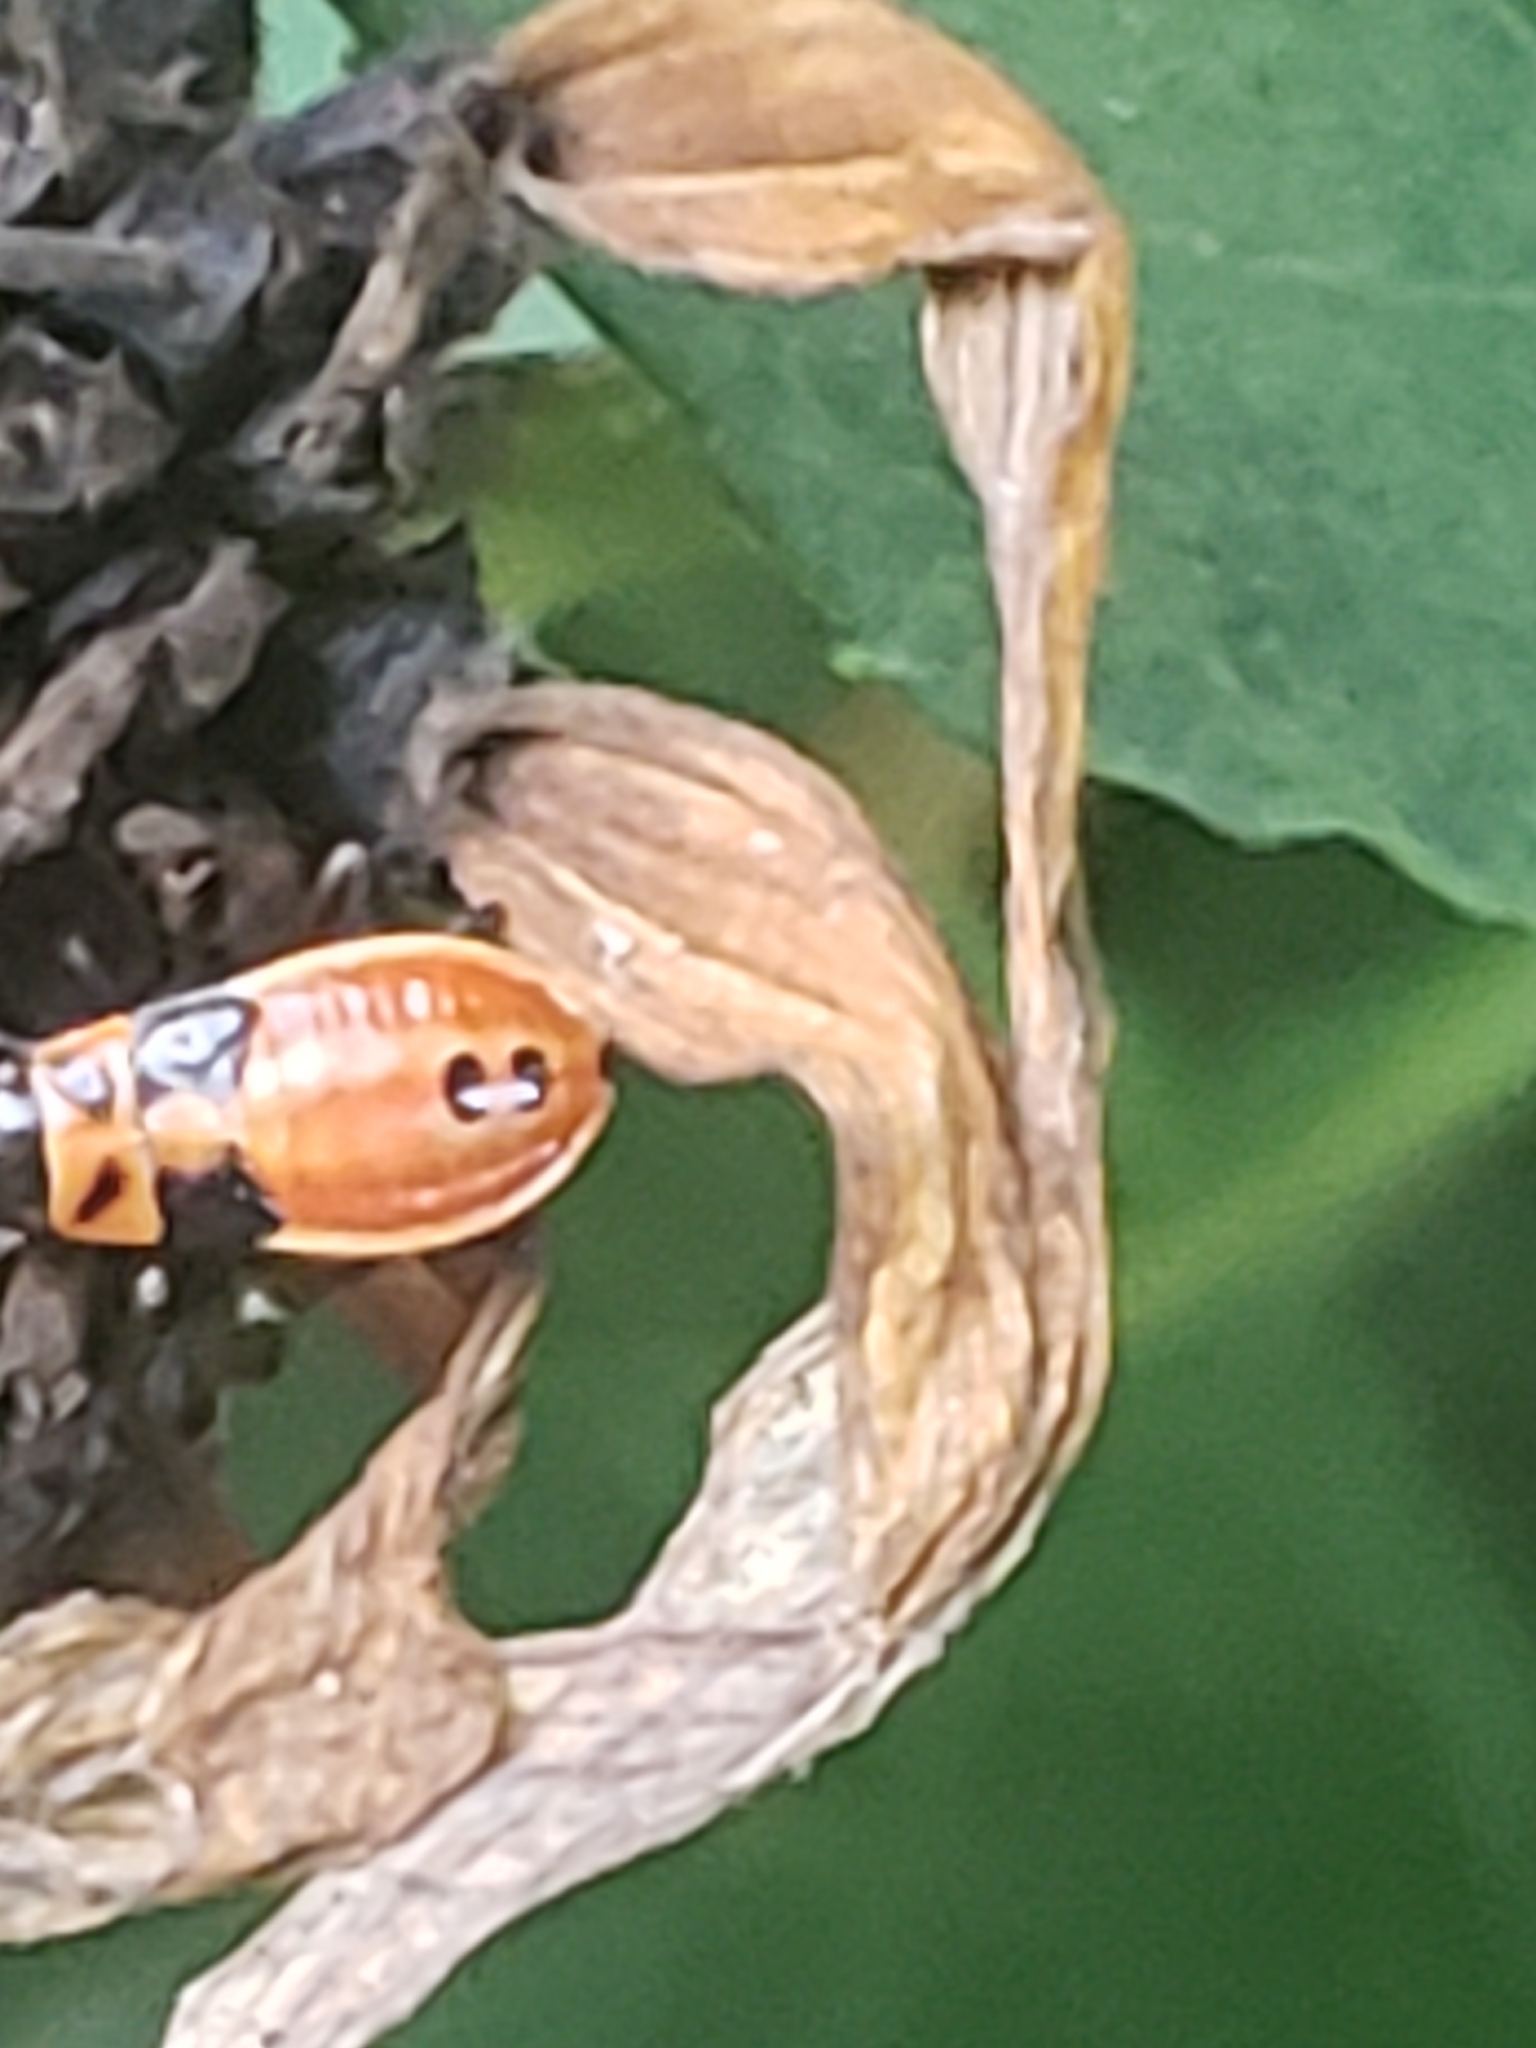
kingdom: Animalia
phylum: Arthropoda
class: Insecta
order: Hemiptera
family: Lygaeidae
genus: Lygaeus
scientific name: Lygaeus turcicus
